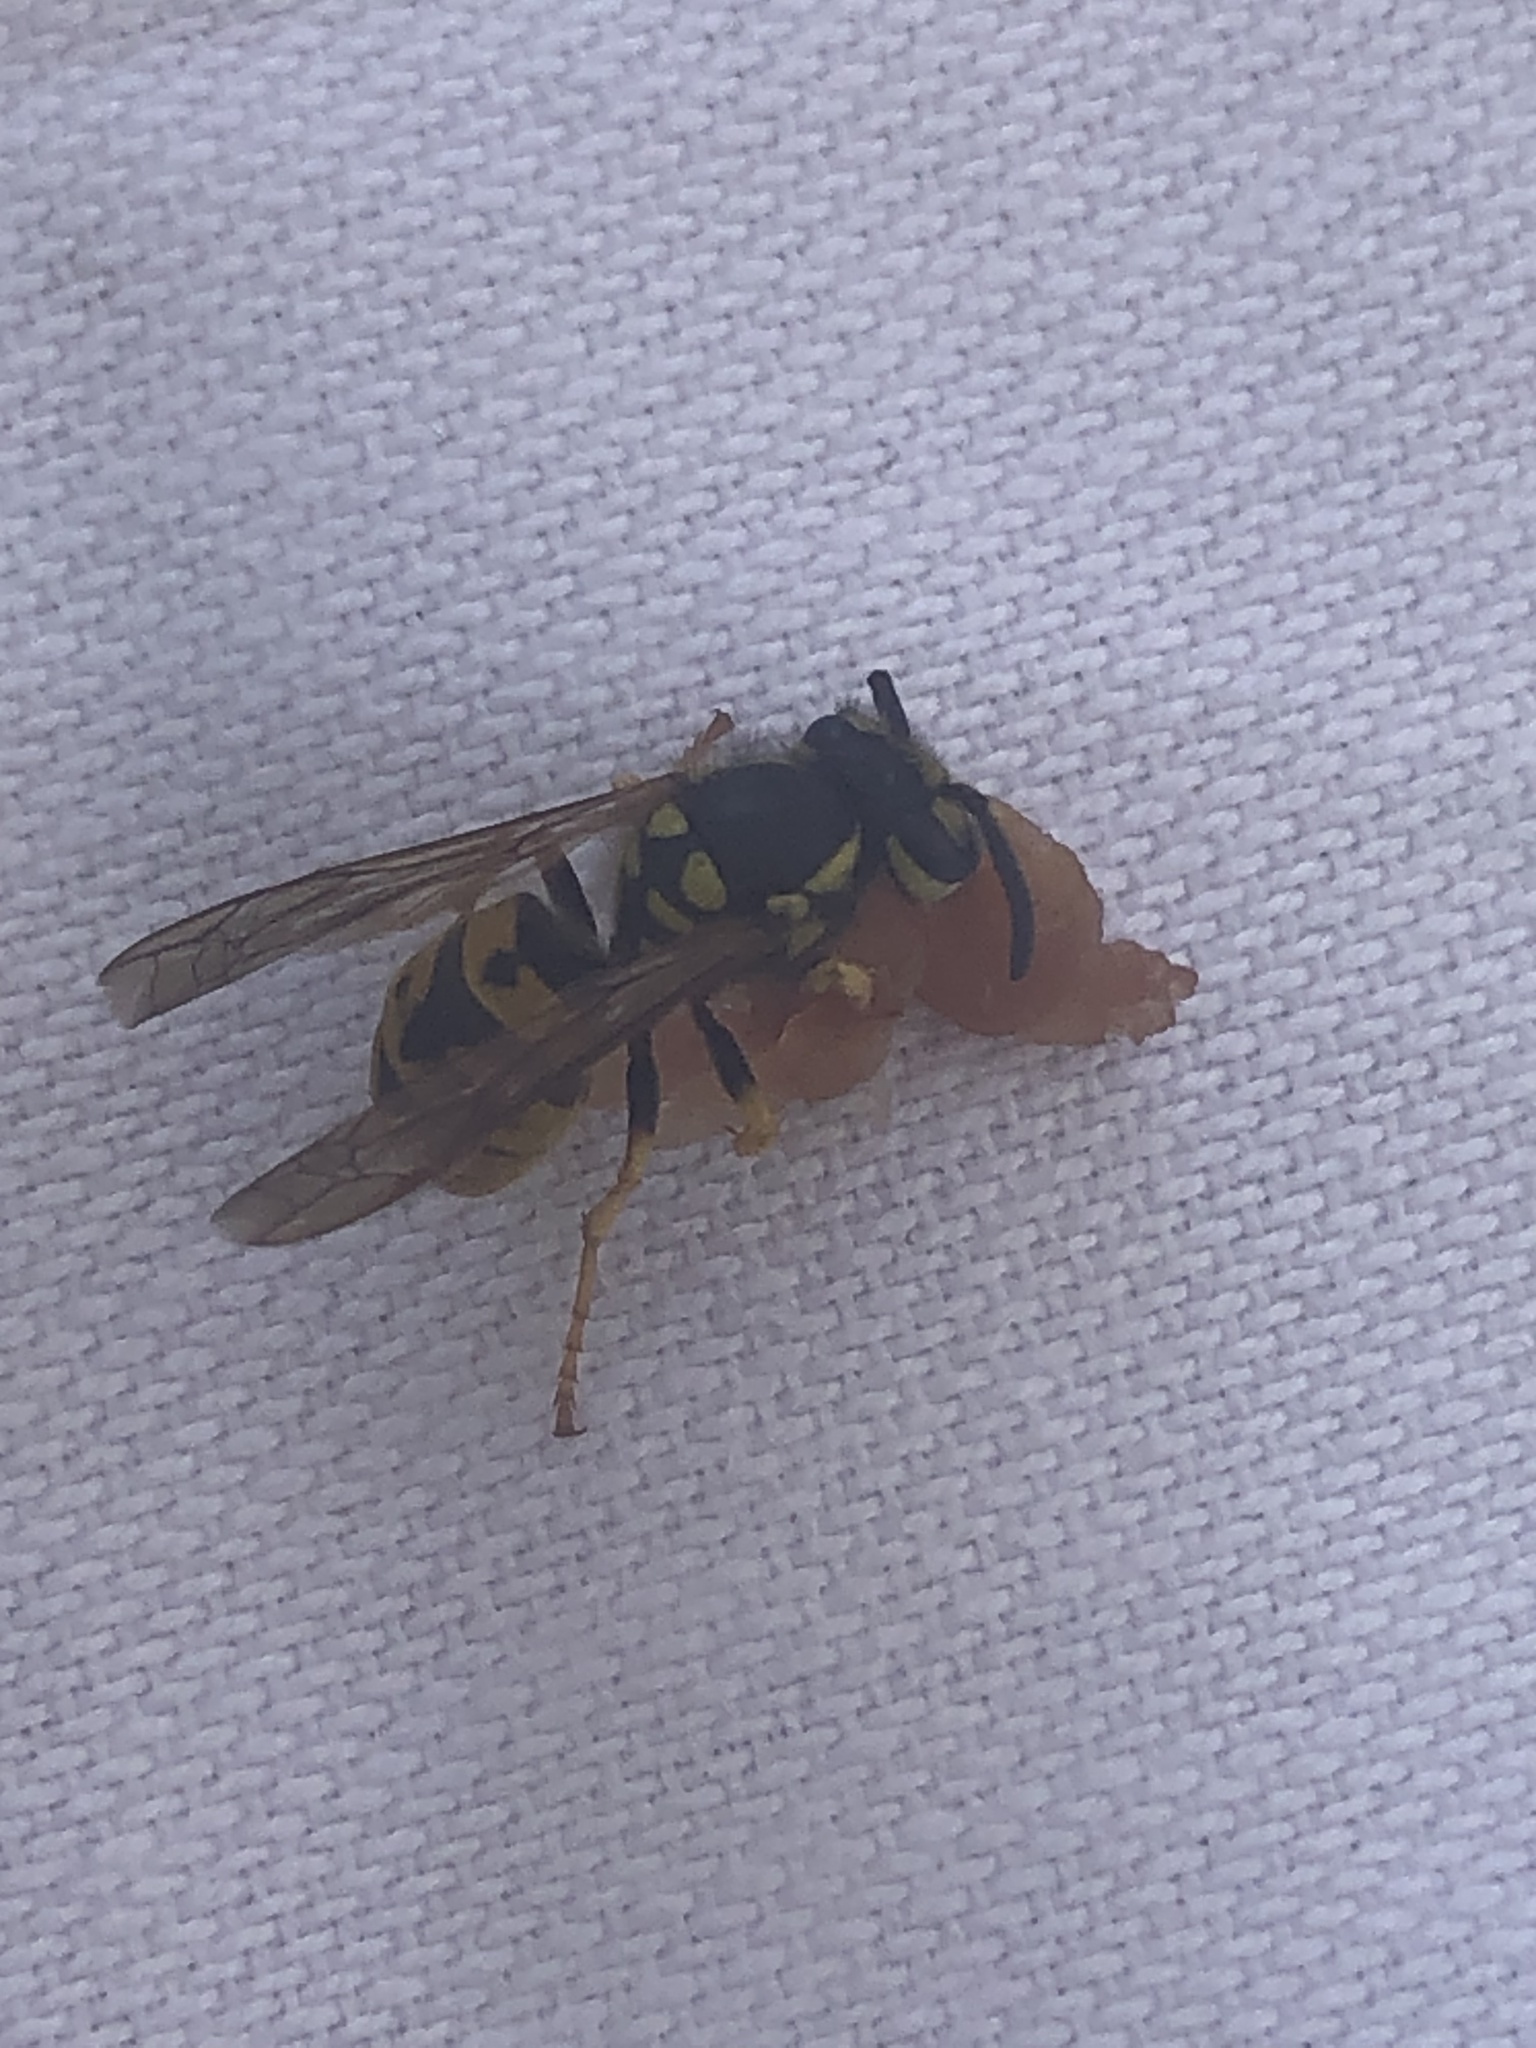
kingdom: Animalia
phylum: Arthropoda
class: Insecta
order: Hymenoptera
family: Vespidae
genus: Vespula
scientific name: Vespula germanica
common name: German wasp
